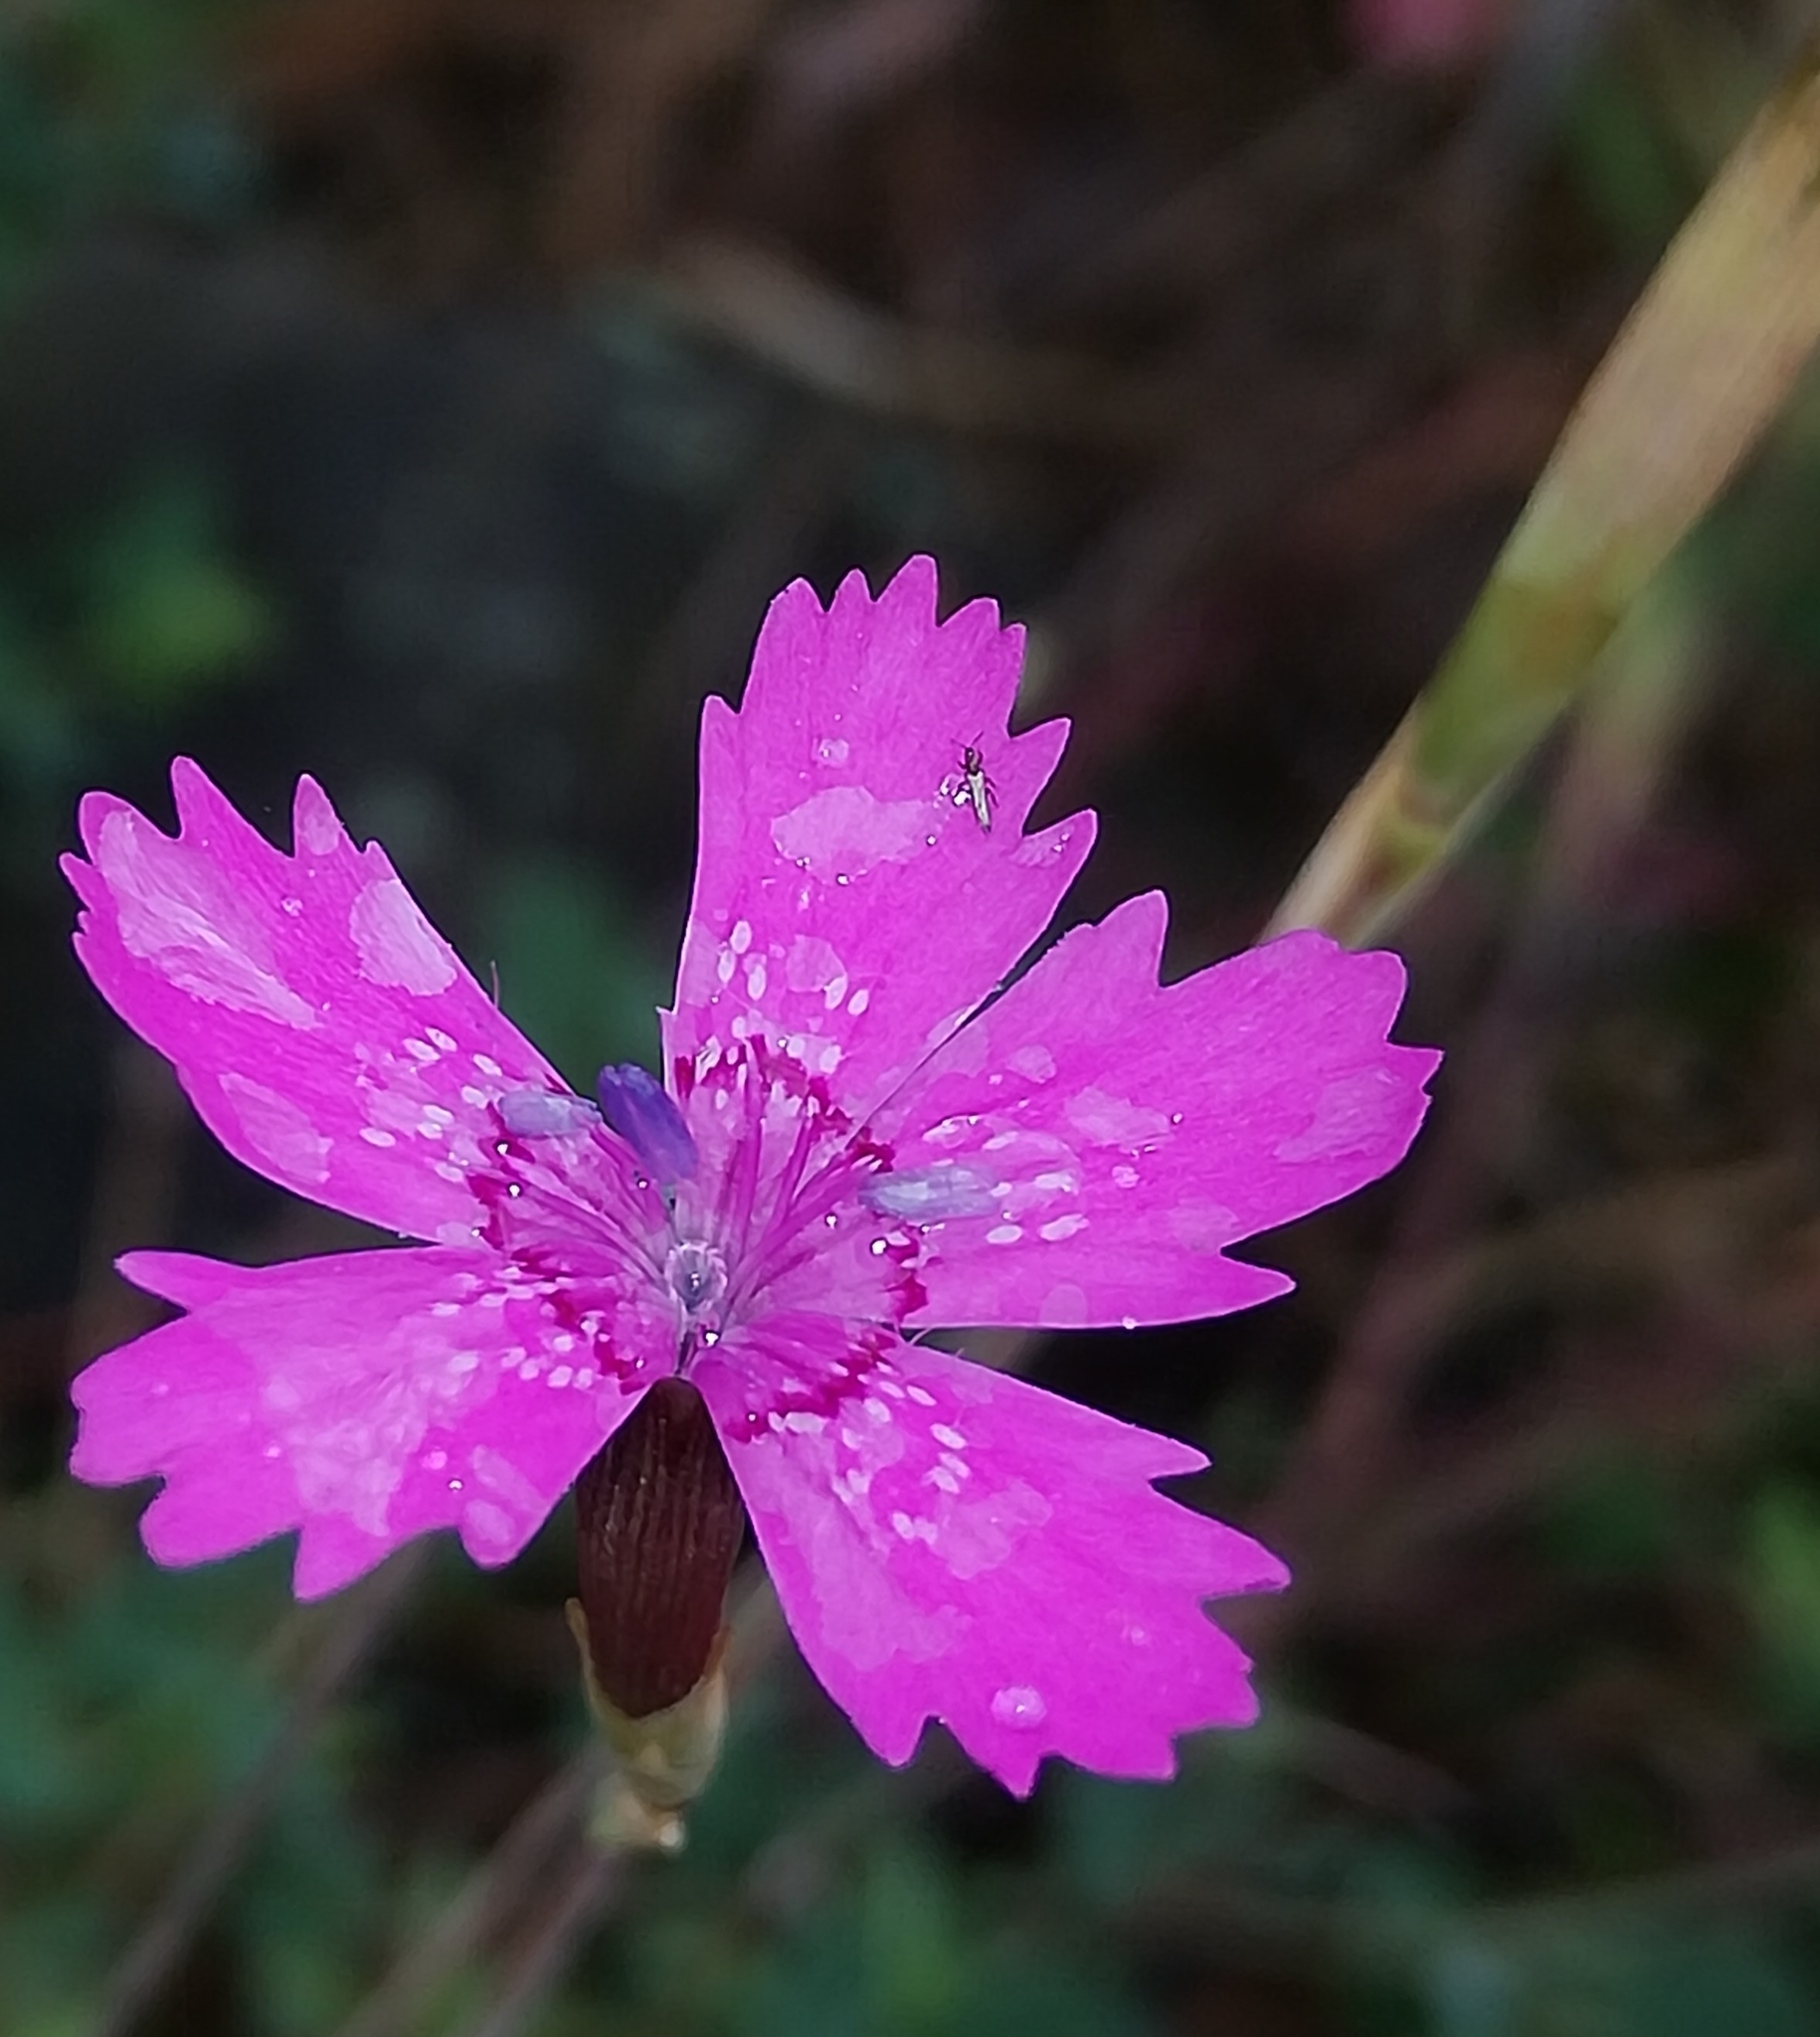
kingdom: Plantae
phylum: Tracheophyta
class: Magnoliopsida
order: Caryophyllales
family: Caryophyllaceae
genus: Dianthus
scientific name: Dianthus deltoides
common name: Maiden pink
